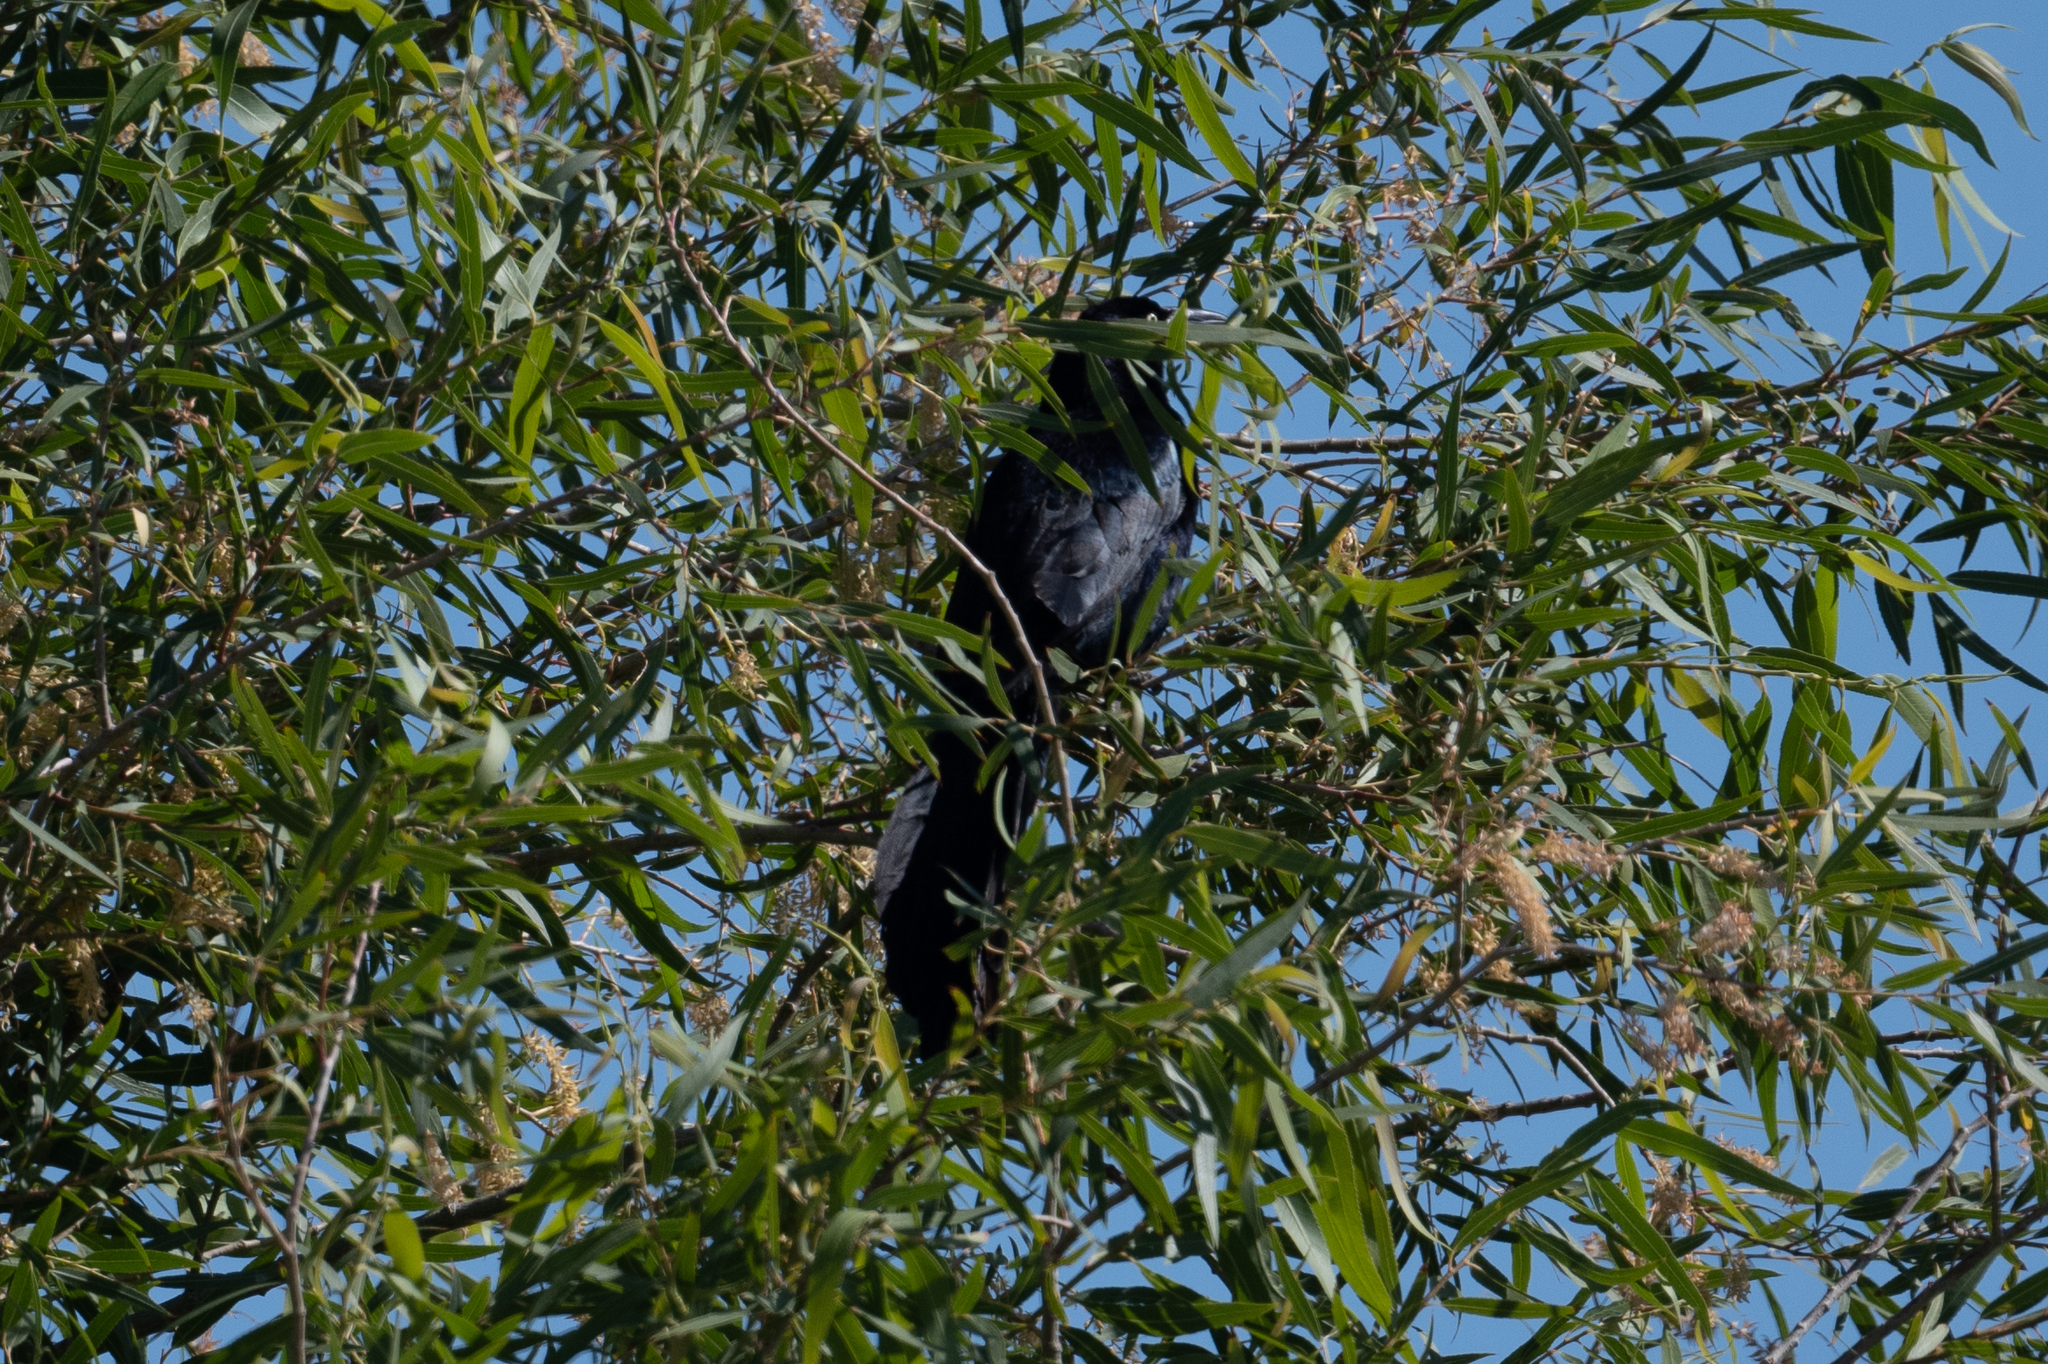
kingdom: Animalia
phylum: Chordata
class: Aves
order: Passeriformes
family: Icteridae
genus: Quiscalus
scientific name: Quiscalus mexicanus
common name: Great-tailed grackle
